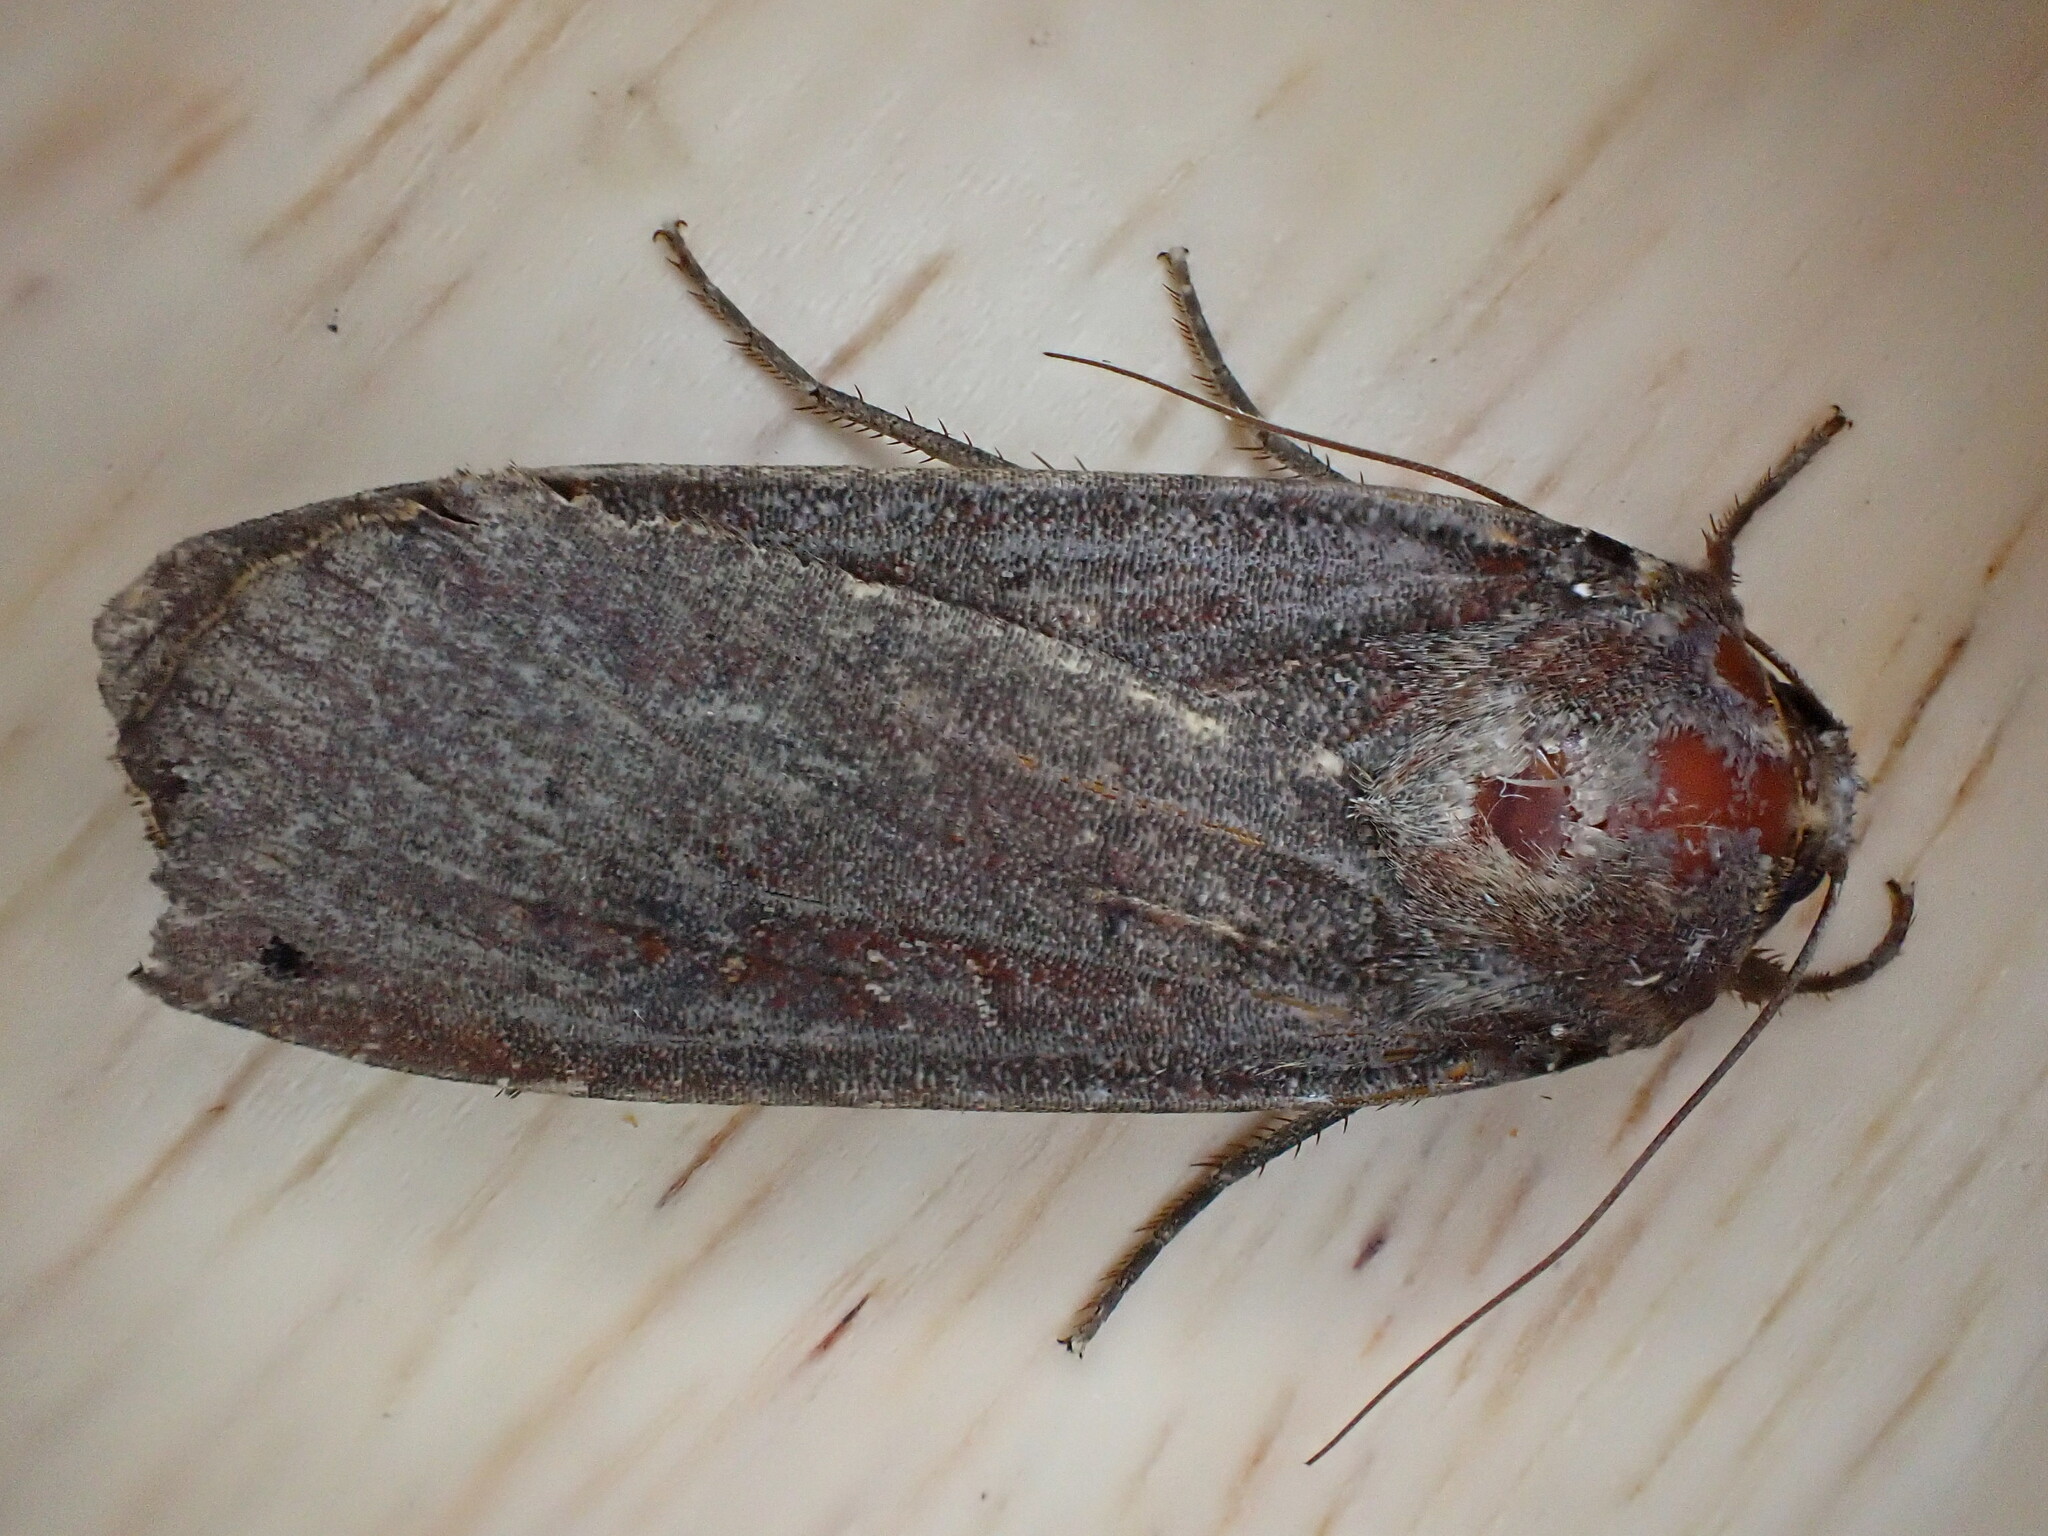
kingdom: Animalia
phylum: Arthropoda
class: Insecta
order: Lepidoptera
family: Noctuidae
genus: Noctua
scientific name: Noctua pronuba
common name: Large yellow underwing
